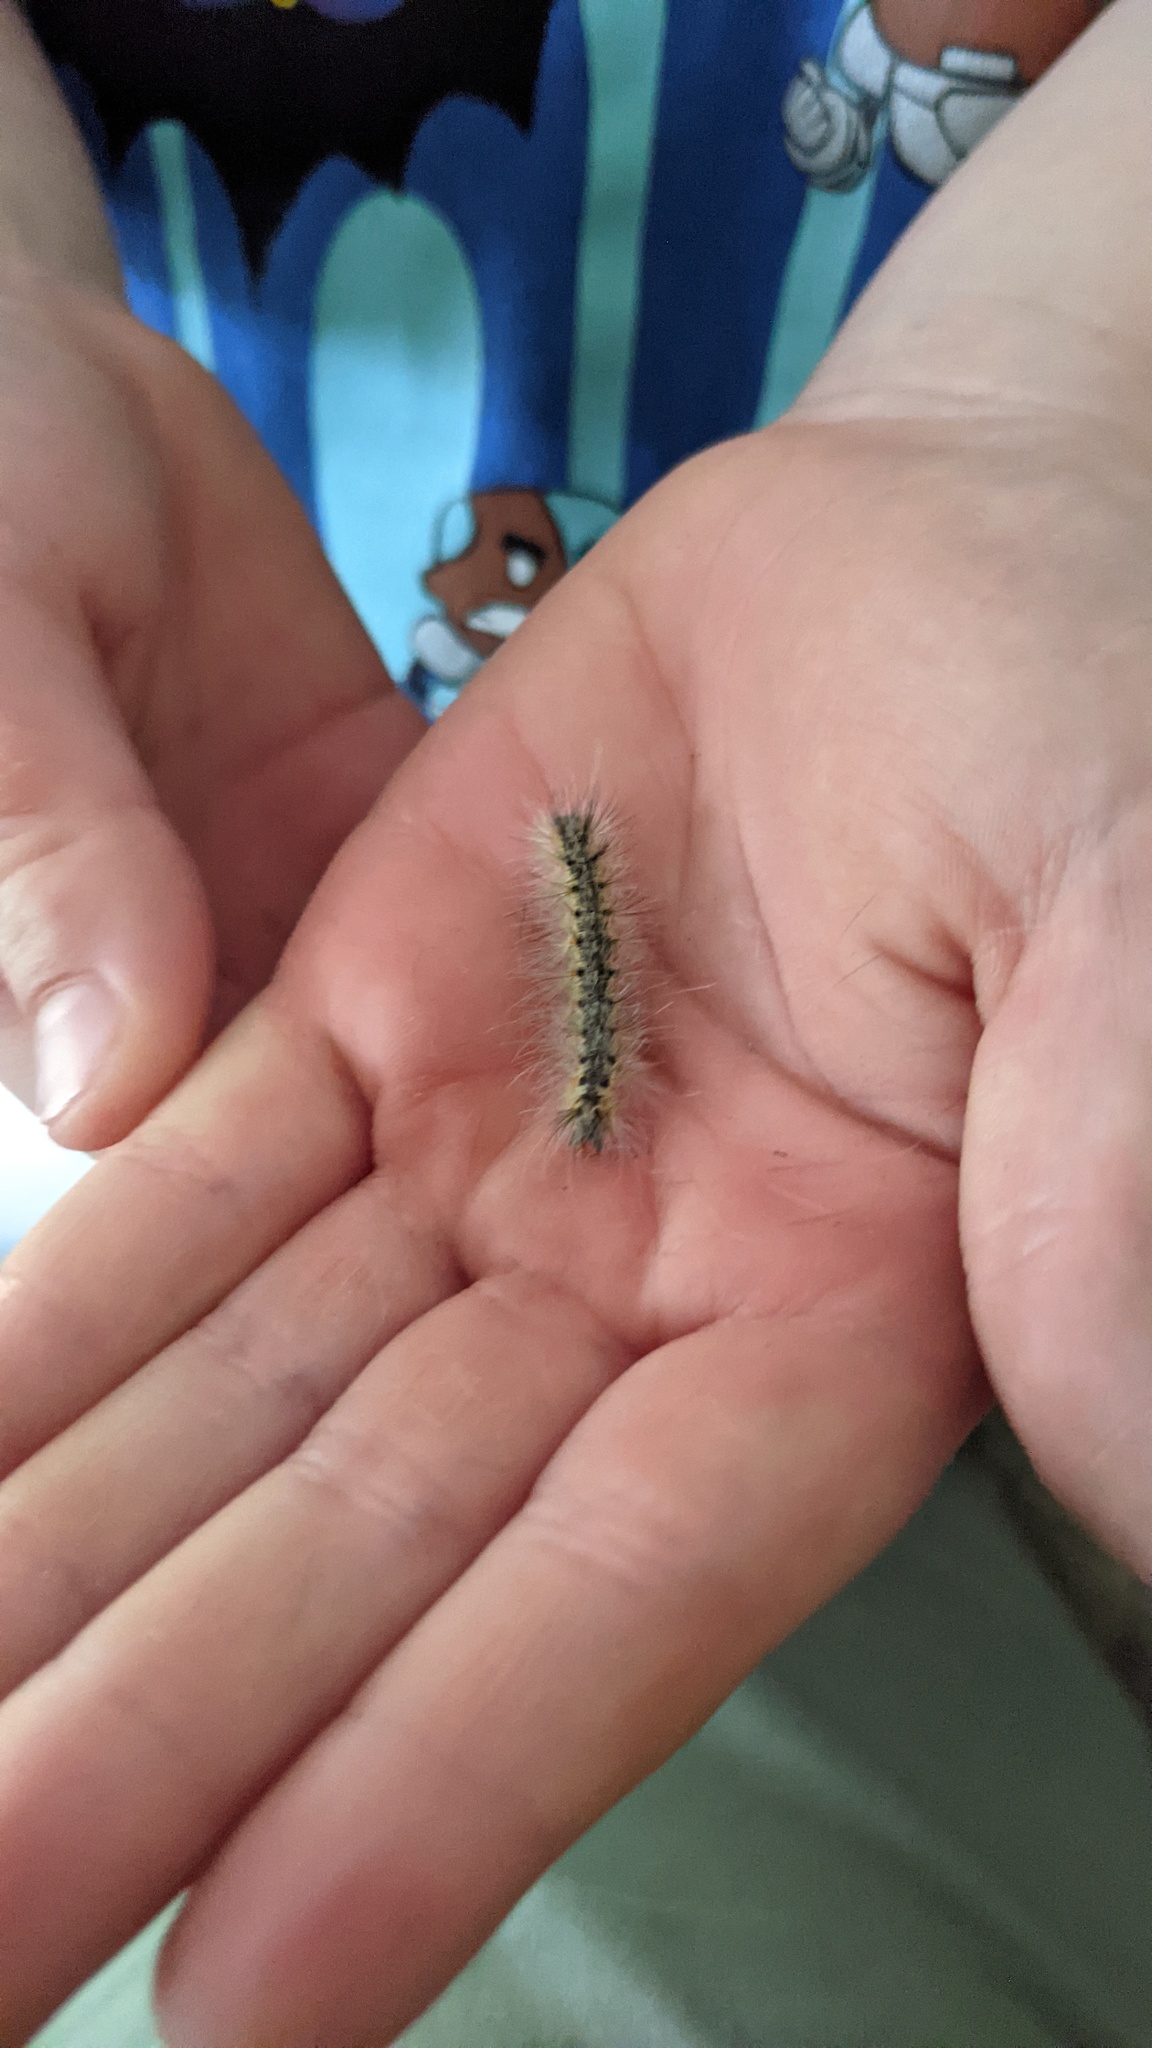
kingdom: Animalia
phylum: Arthropoda
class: Insecta
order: Lepidoptera
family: Erebidae
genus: Hyphantria
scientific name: Hyphantria cunea
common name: American white moth
